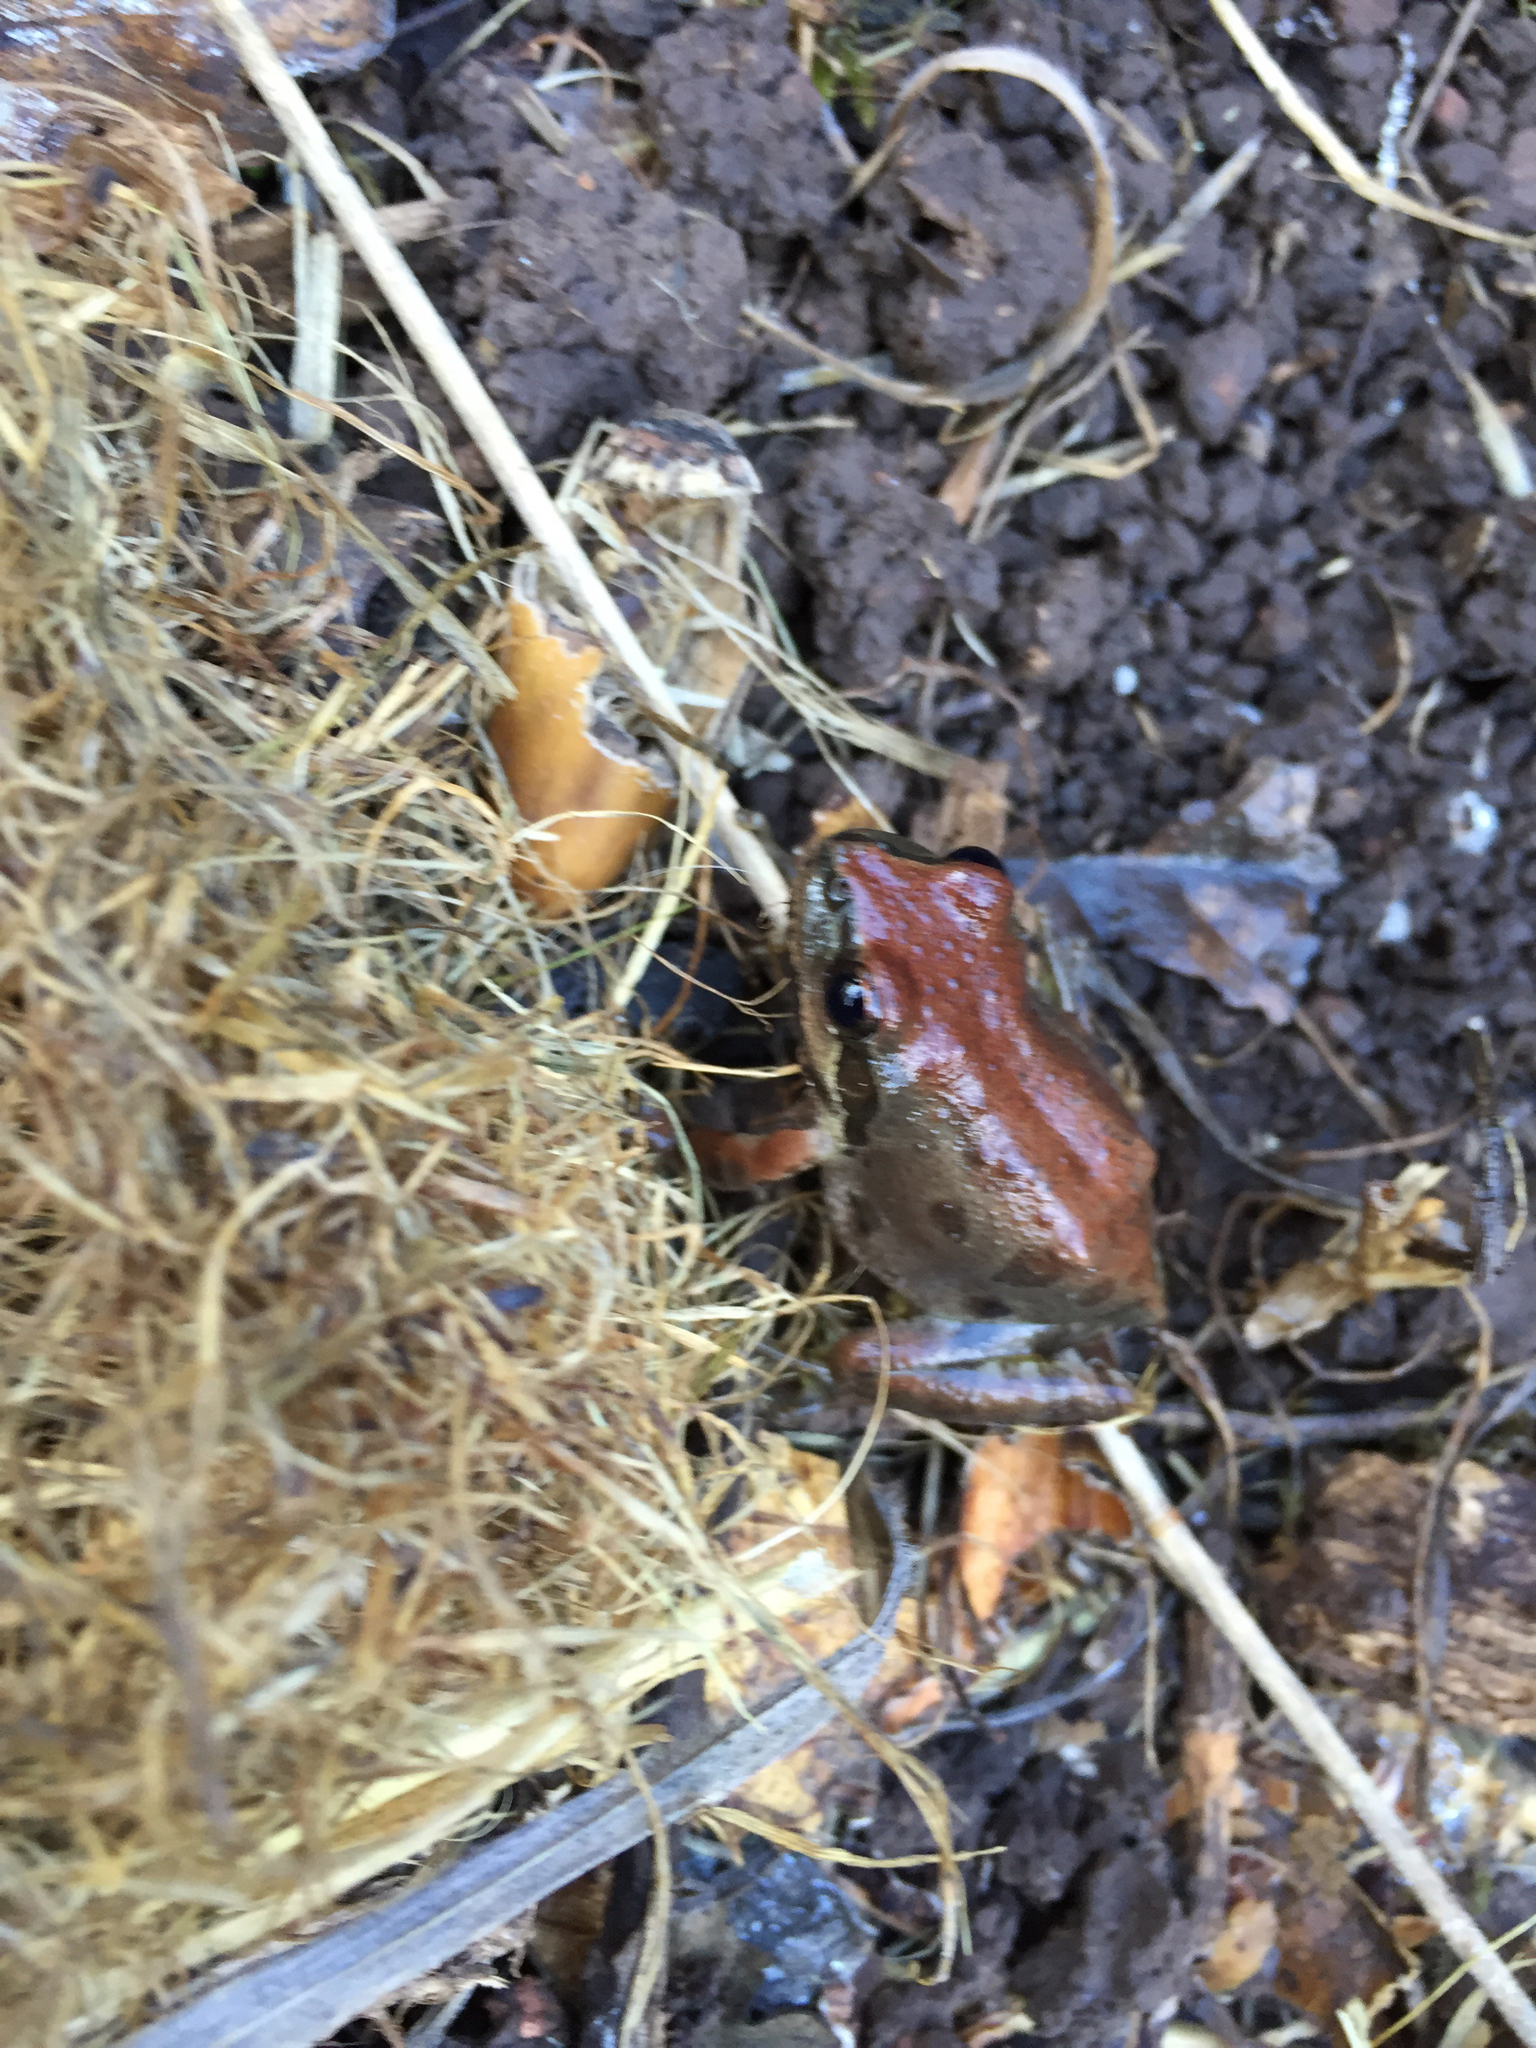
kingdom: Animalia
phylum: Chordata
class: Amphibia
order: Anura
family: Hylidae
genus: Pseudacris
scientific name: Pseudacris regilla
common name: Pacific chorus frog
